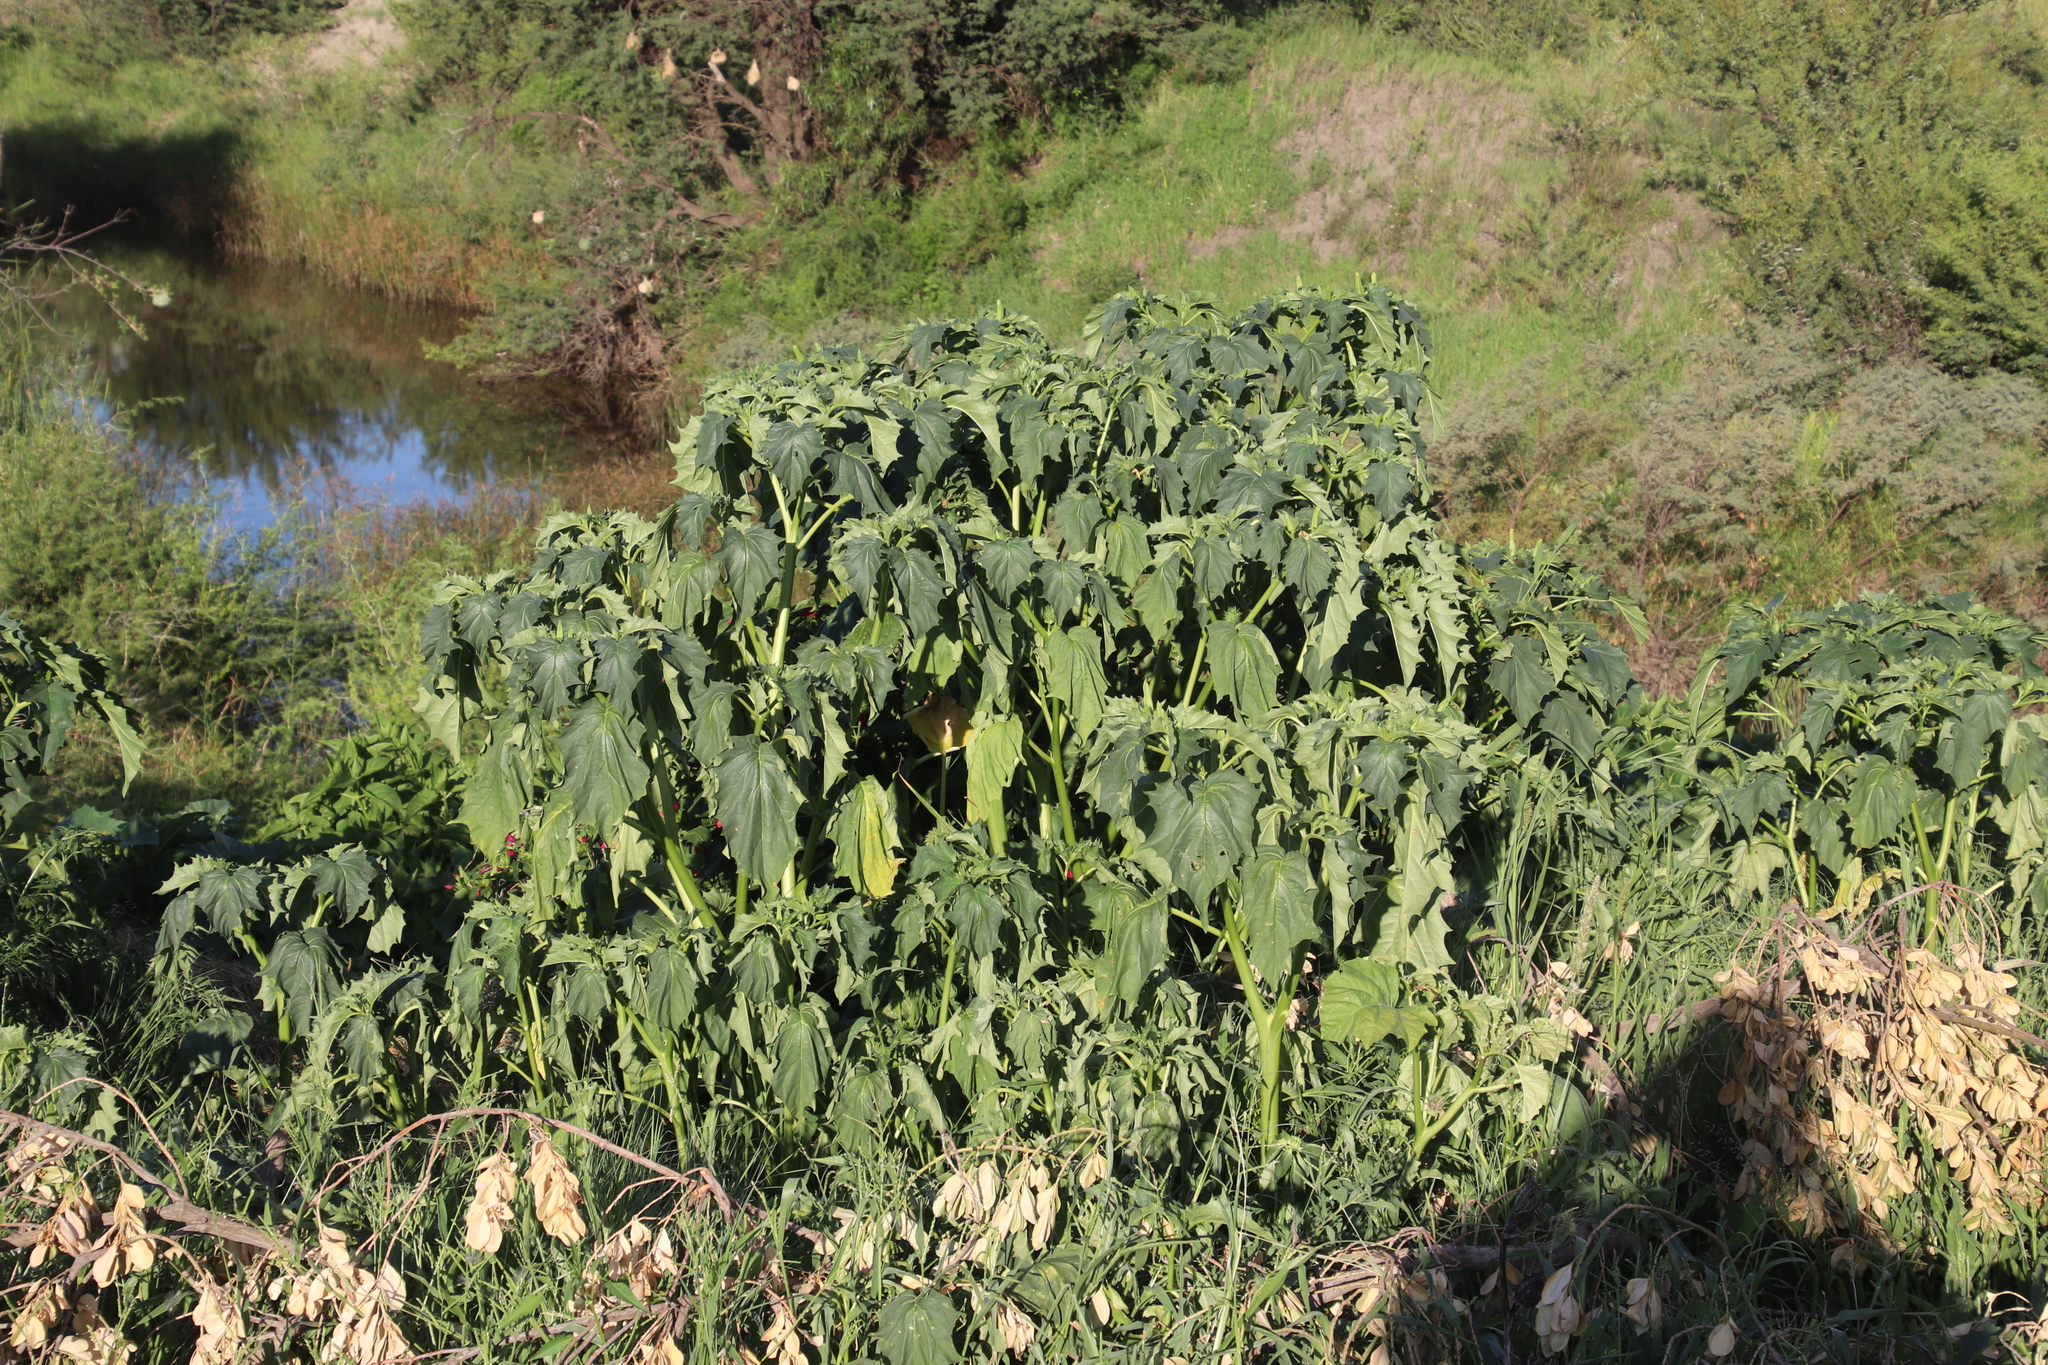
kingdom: Plantae
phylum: Tracheophyta
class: Magnoliopsida
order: Solanales
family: Solanaceae
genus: Datura
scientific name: Datura stramonium
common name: Thorn-apple
